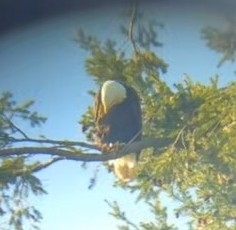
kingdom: Animalia
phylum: Chordata
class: Aves
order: Accipitriformes
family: Accipitridae
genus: Haliaeetus
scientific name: Haliaeetus leucocephalus
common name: Bald eagle
